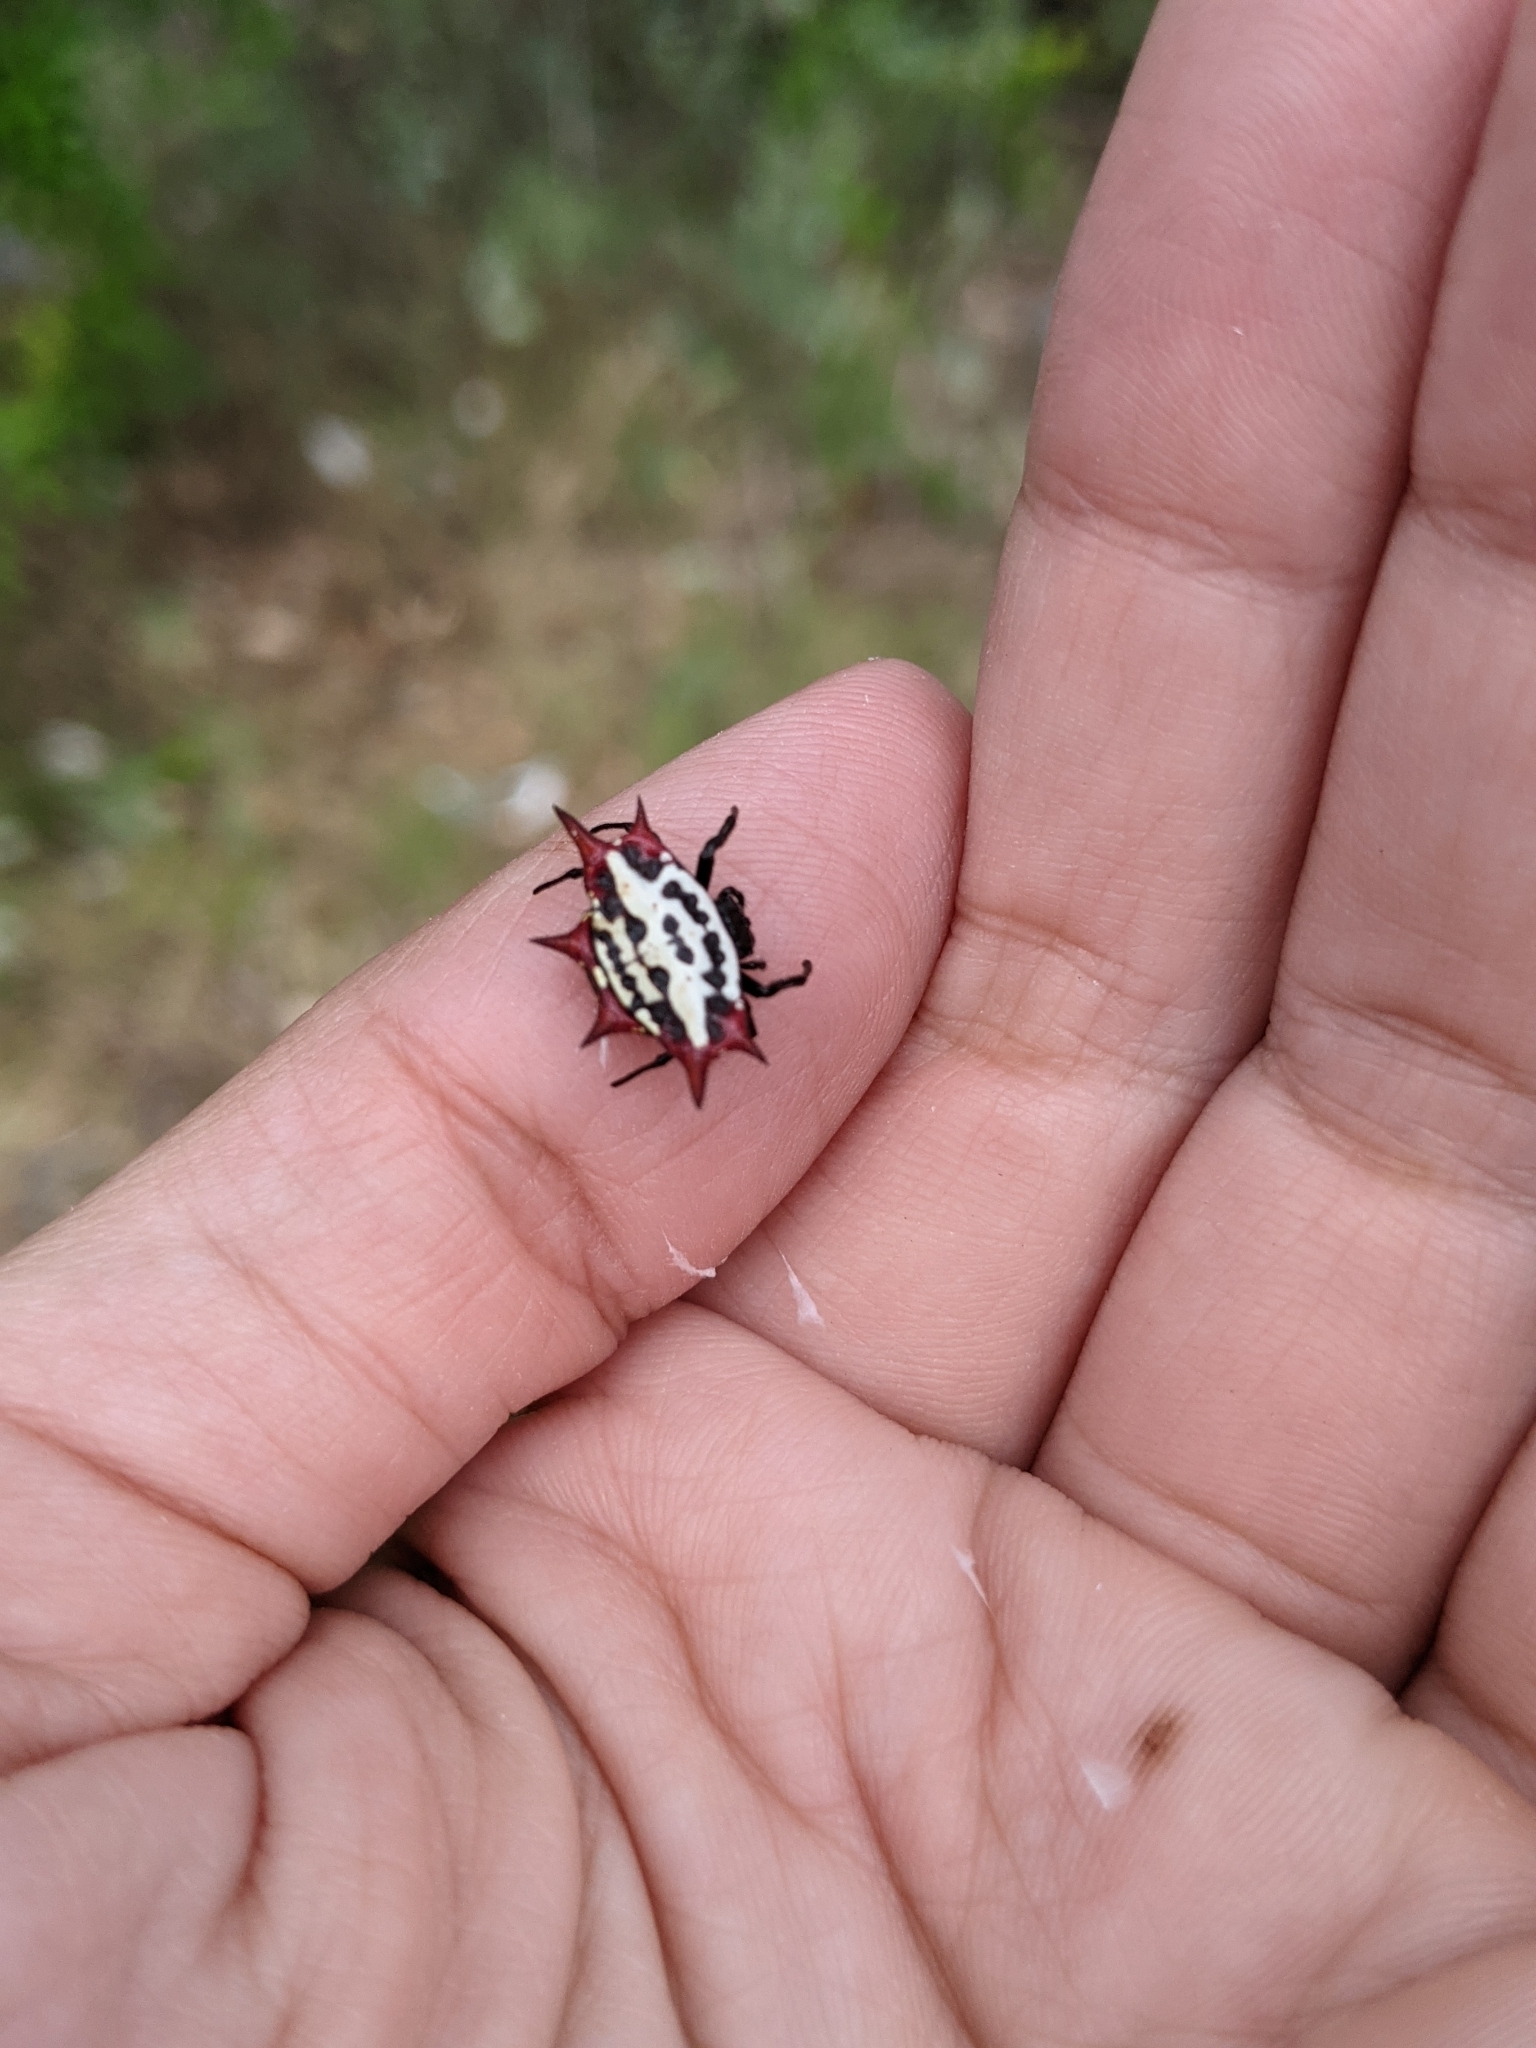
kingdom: Animalia
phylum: Arthropoda
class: Arachnida
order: Araneae
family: Araneidae
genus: Gasteracantha
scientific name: Gasteracantha cancriformis
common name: Orb weavers
